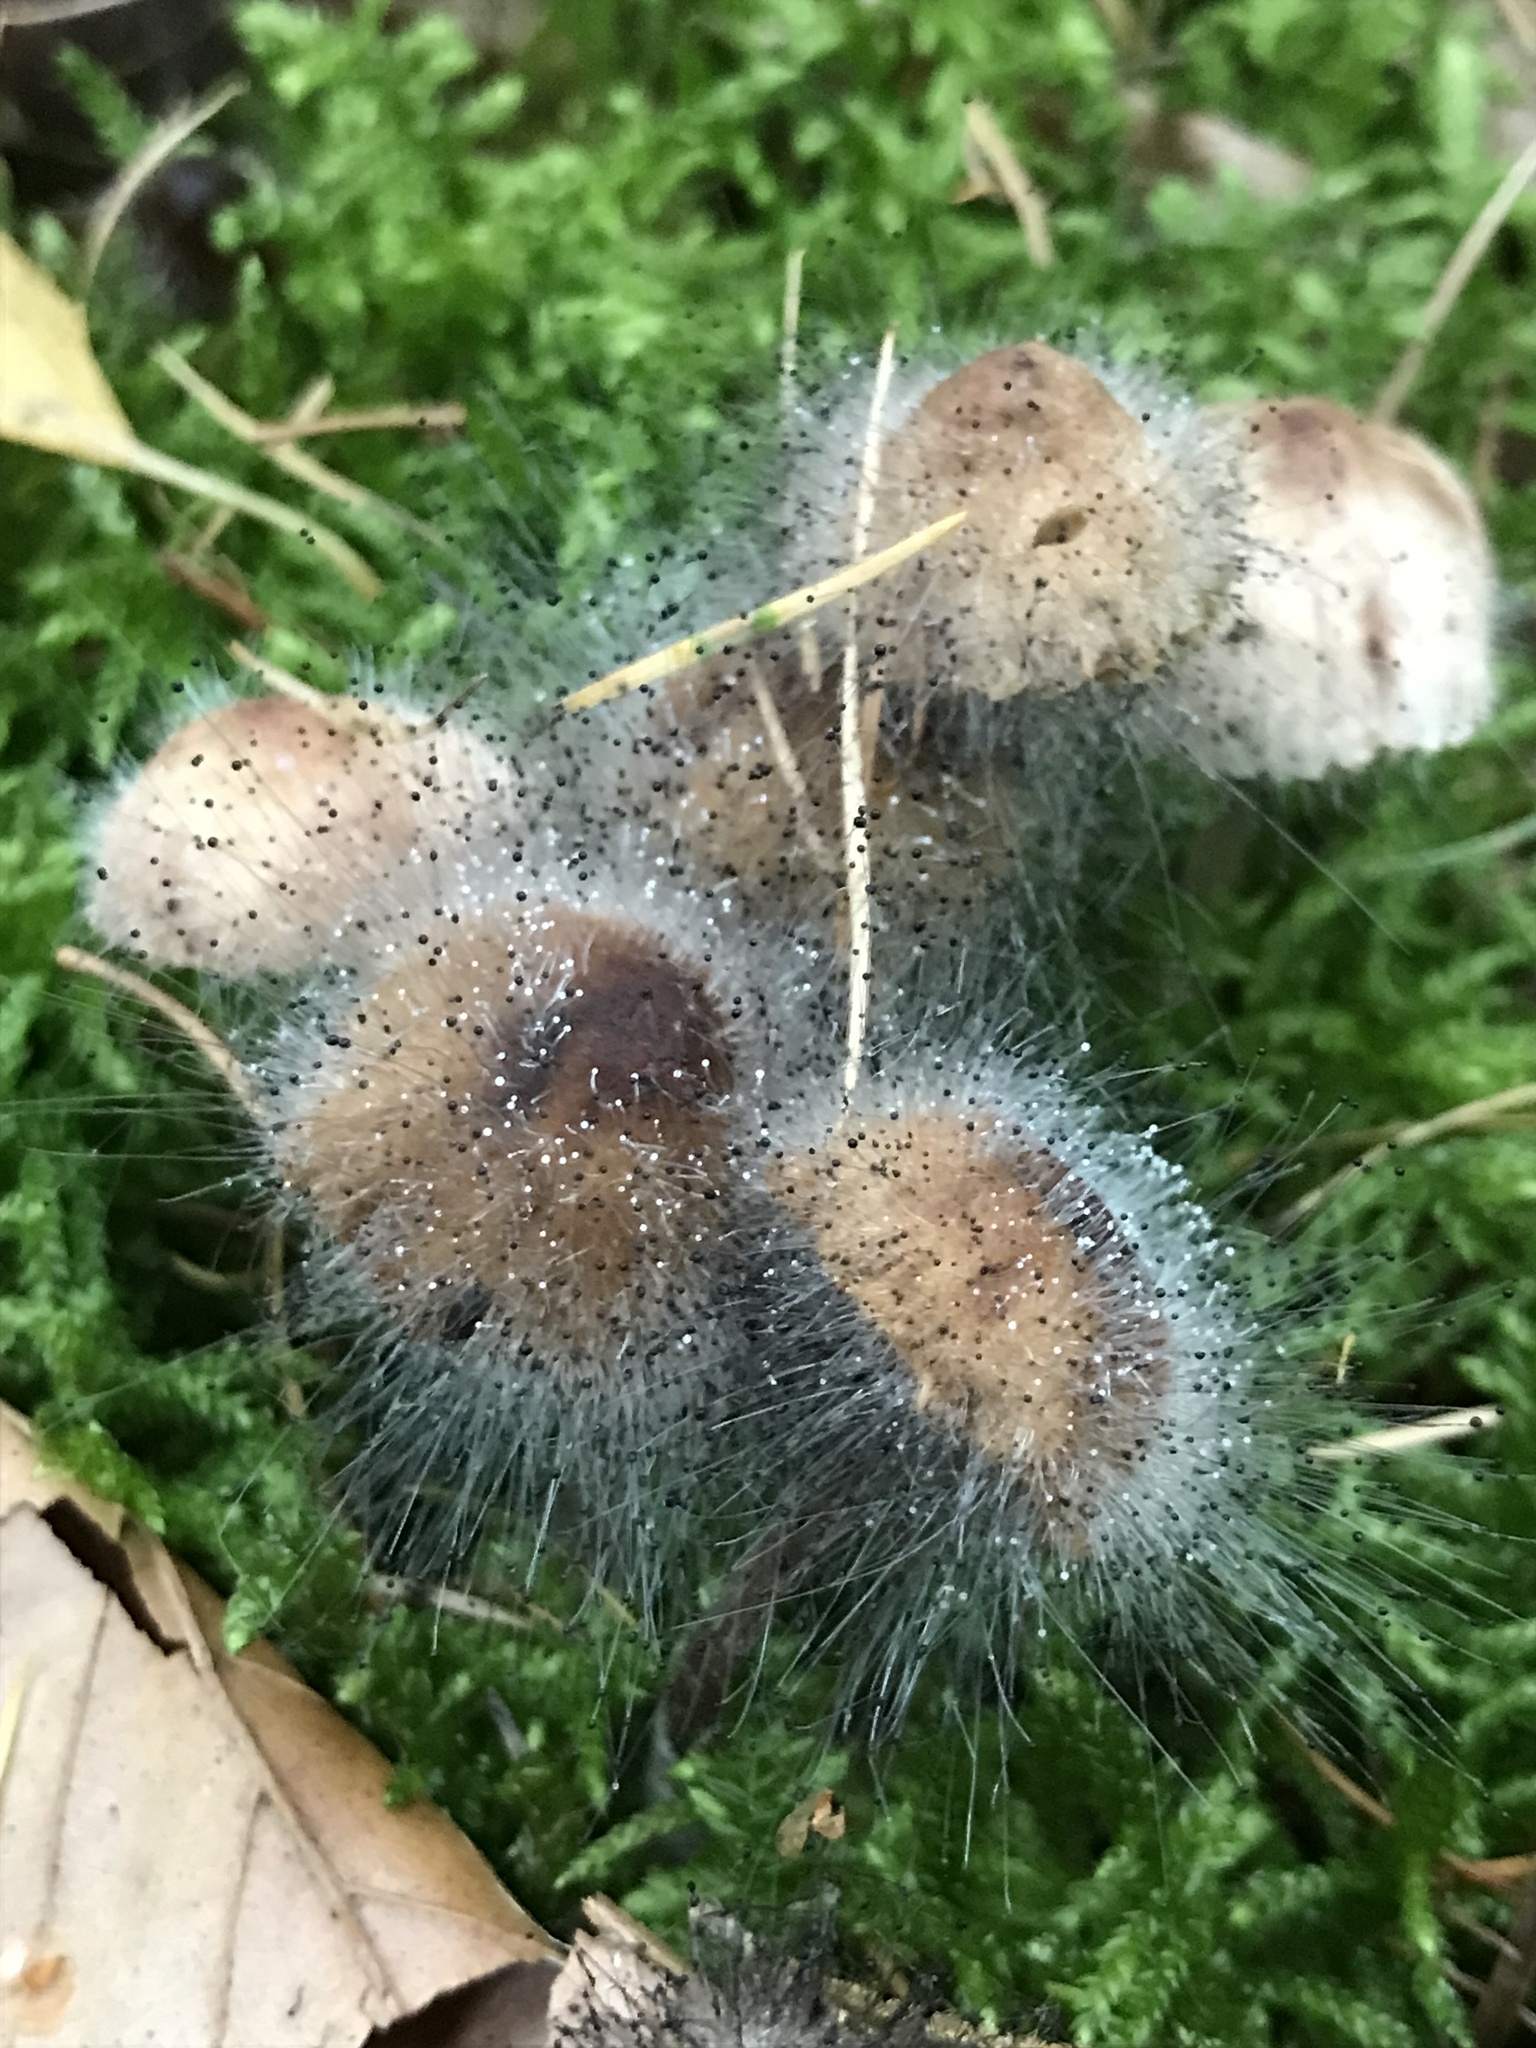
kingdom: Fungi
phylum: Mucoromycota
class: Mucoromycetes
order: Mucorales
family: Phycomycetaceae
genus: Spinellus
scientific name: Spinellus fusiger
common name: Bonnet mould
